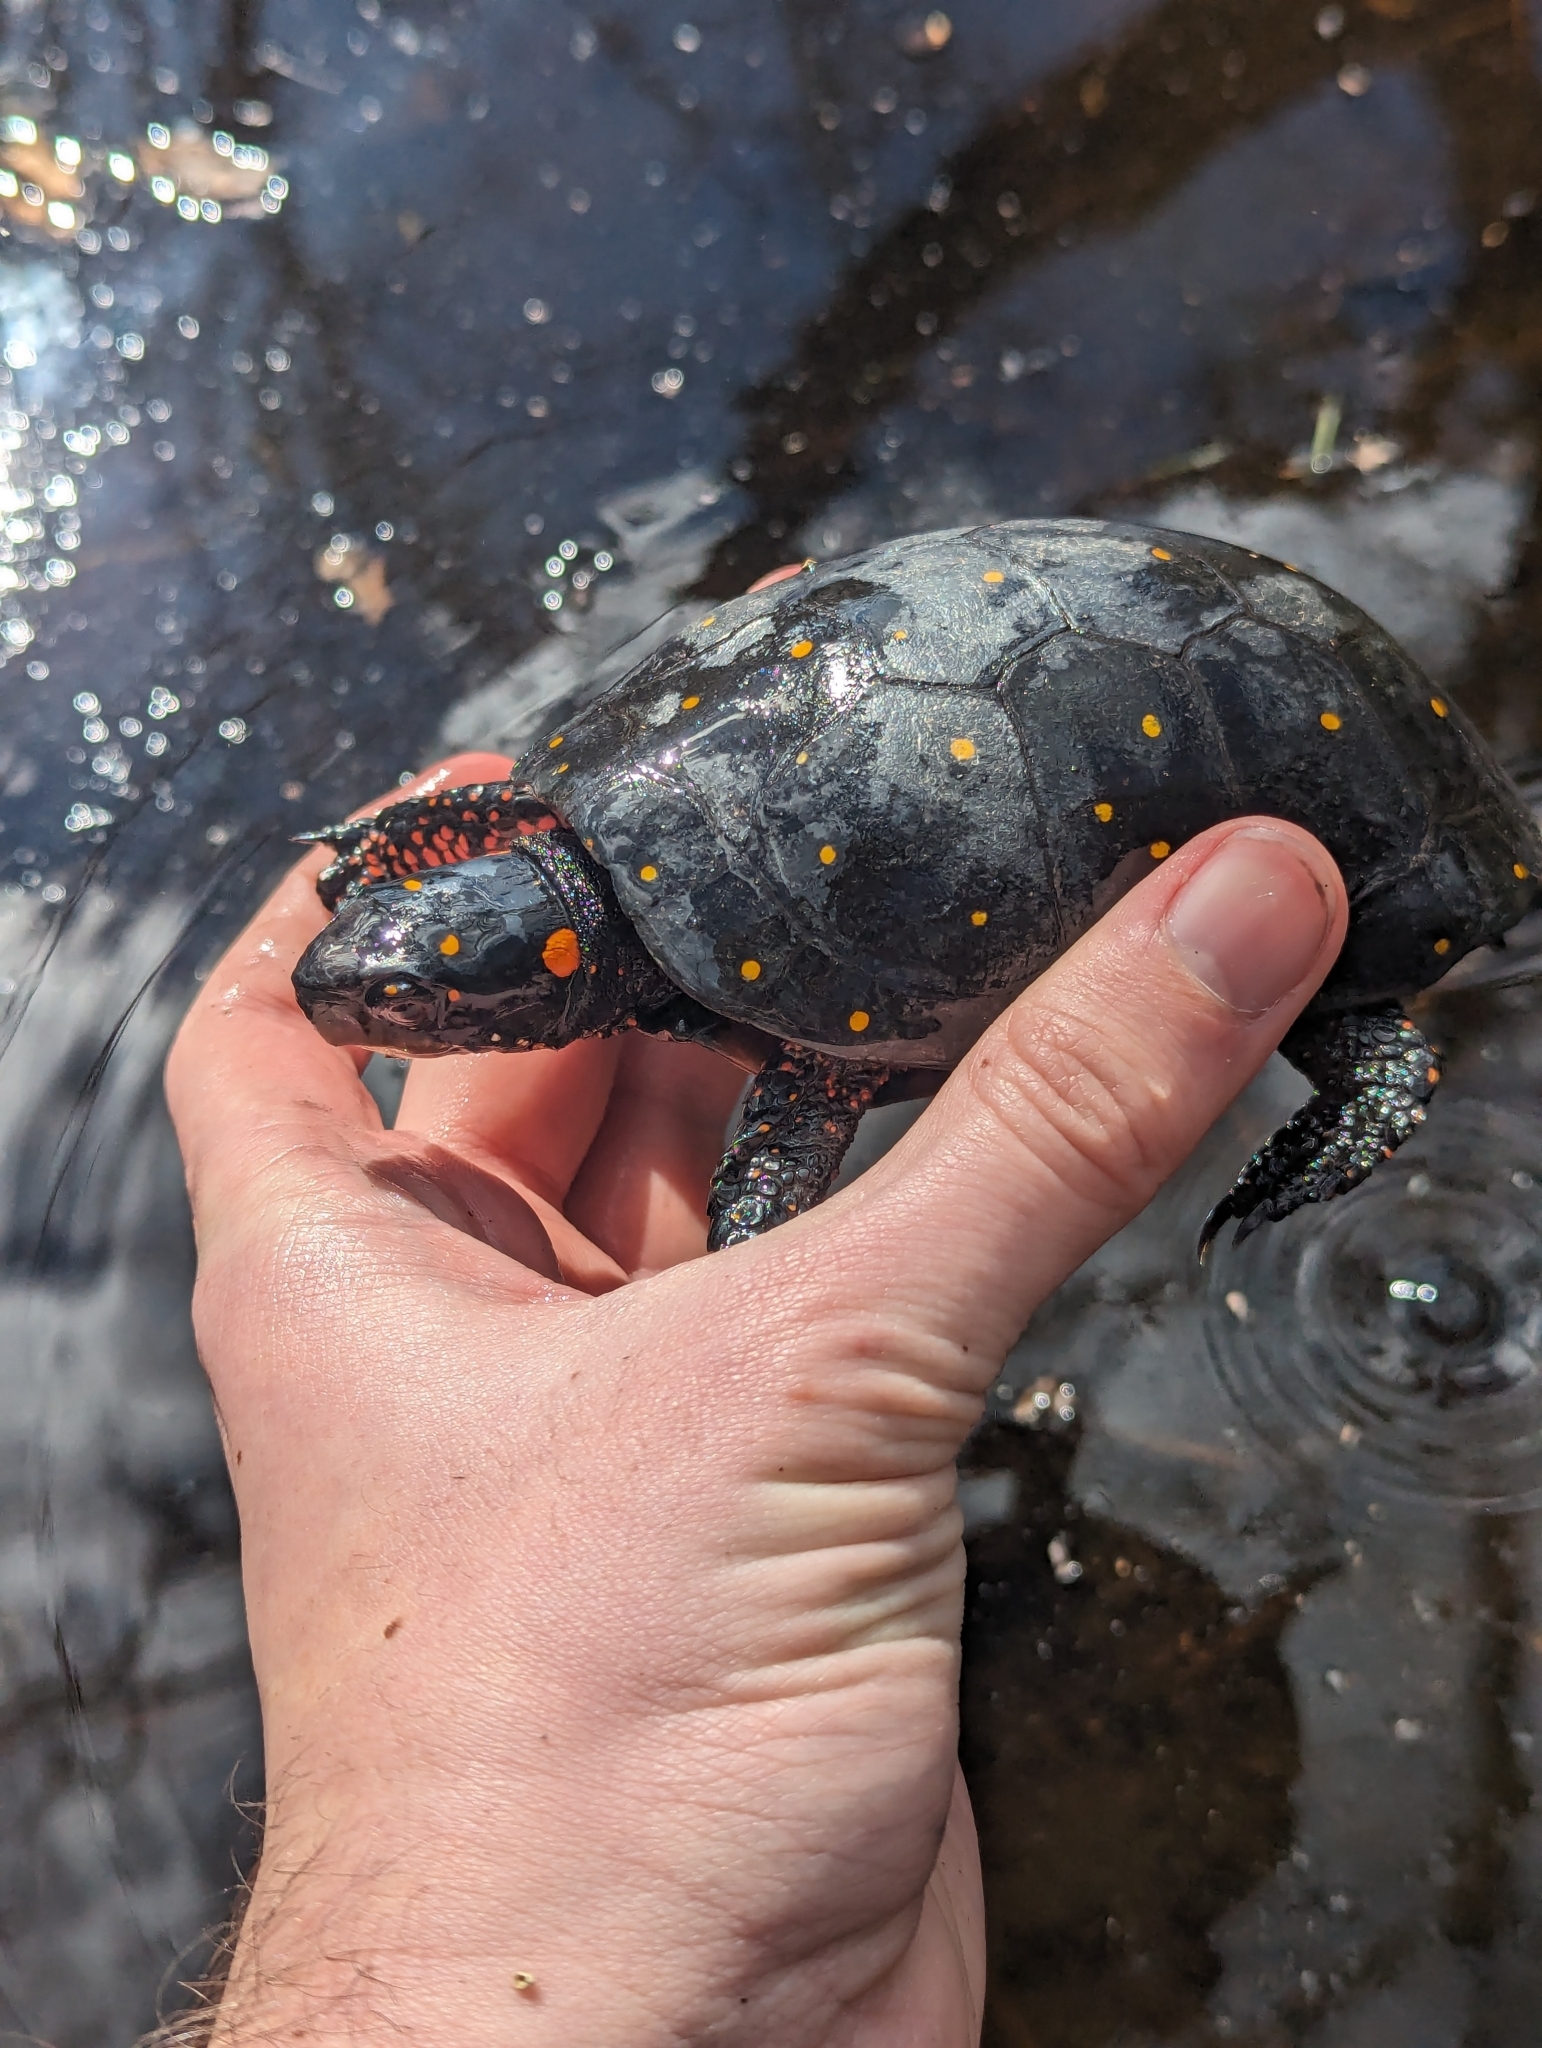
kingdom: Animalia
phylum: Chordata
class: Testudines
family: Emydidae
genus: Clemmys
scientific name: Clemmys guttata
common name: Spotted turtle
